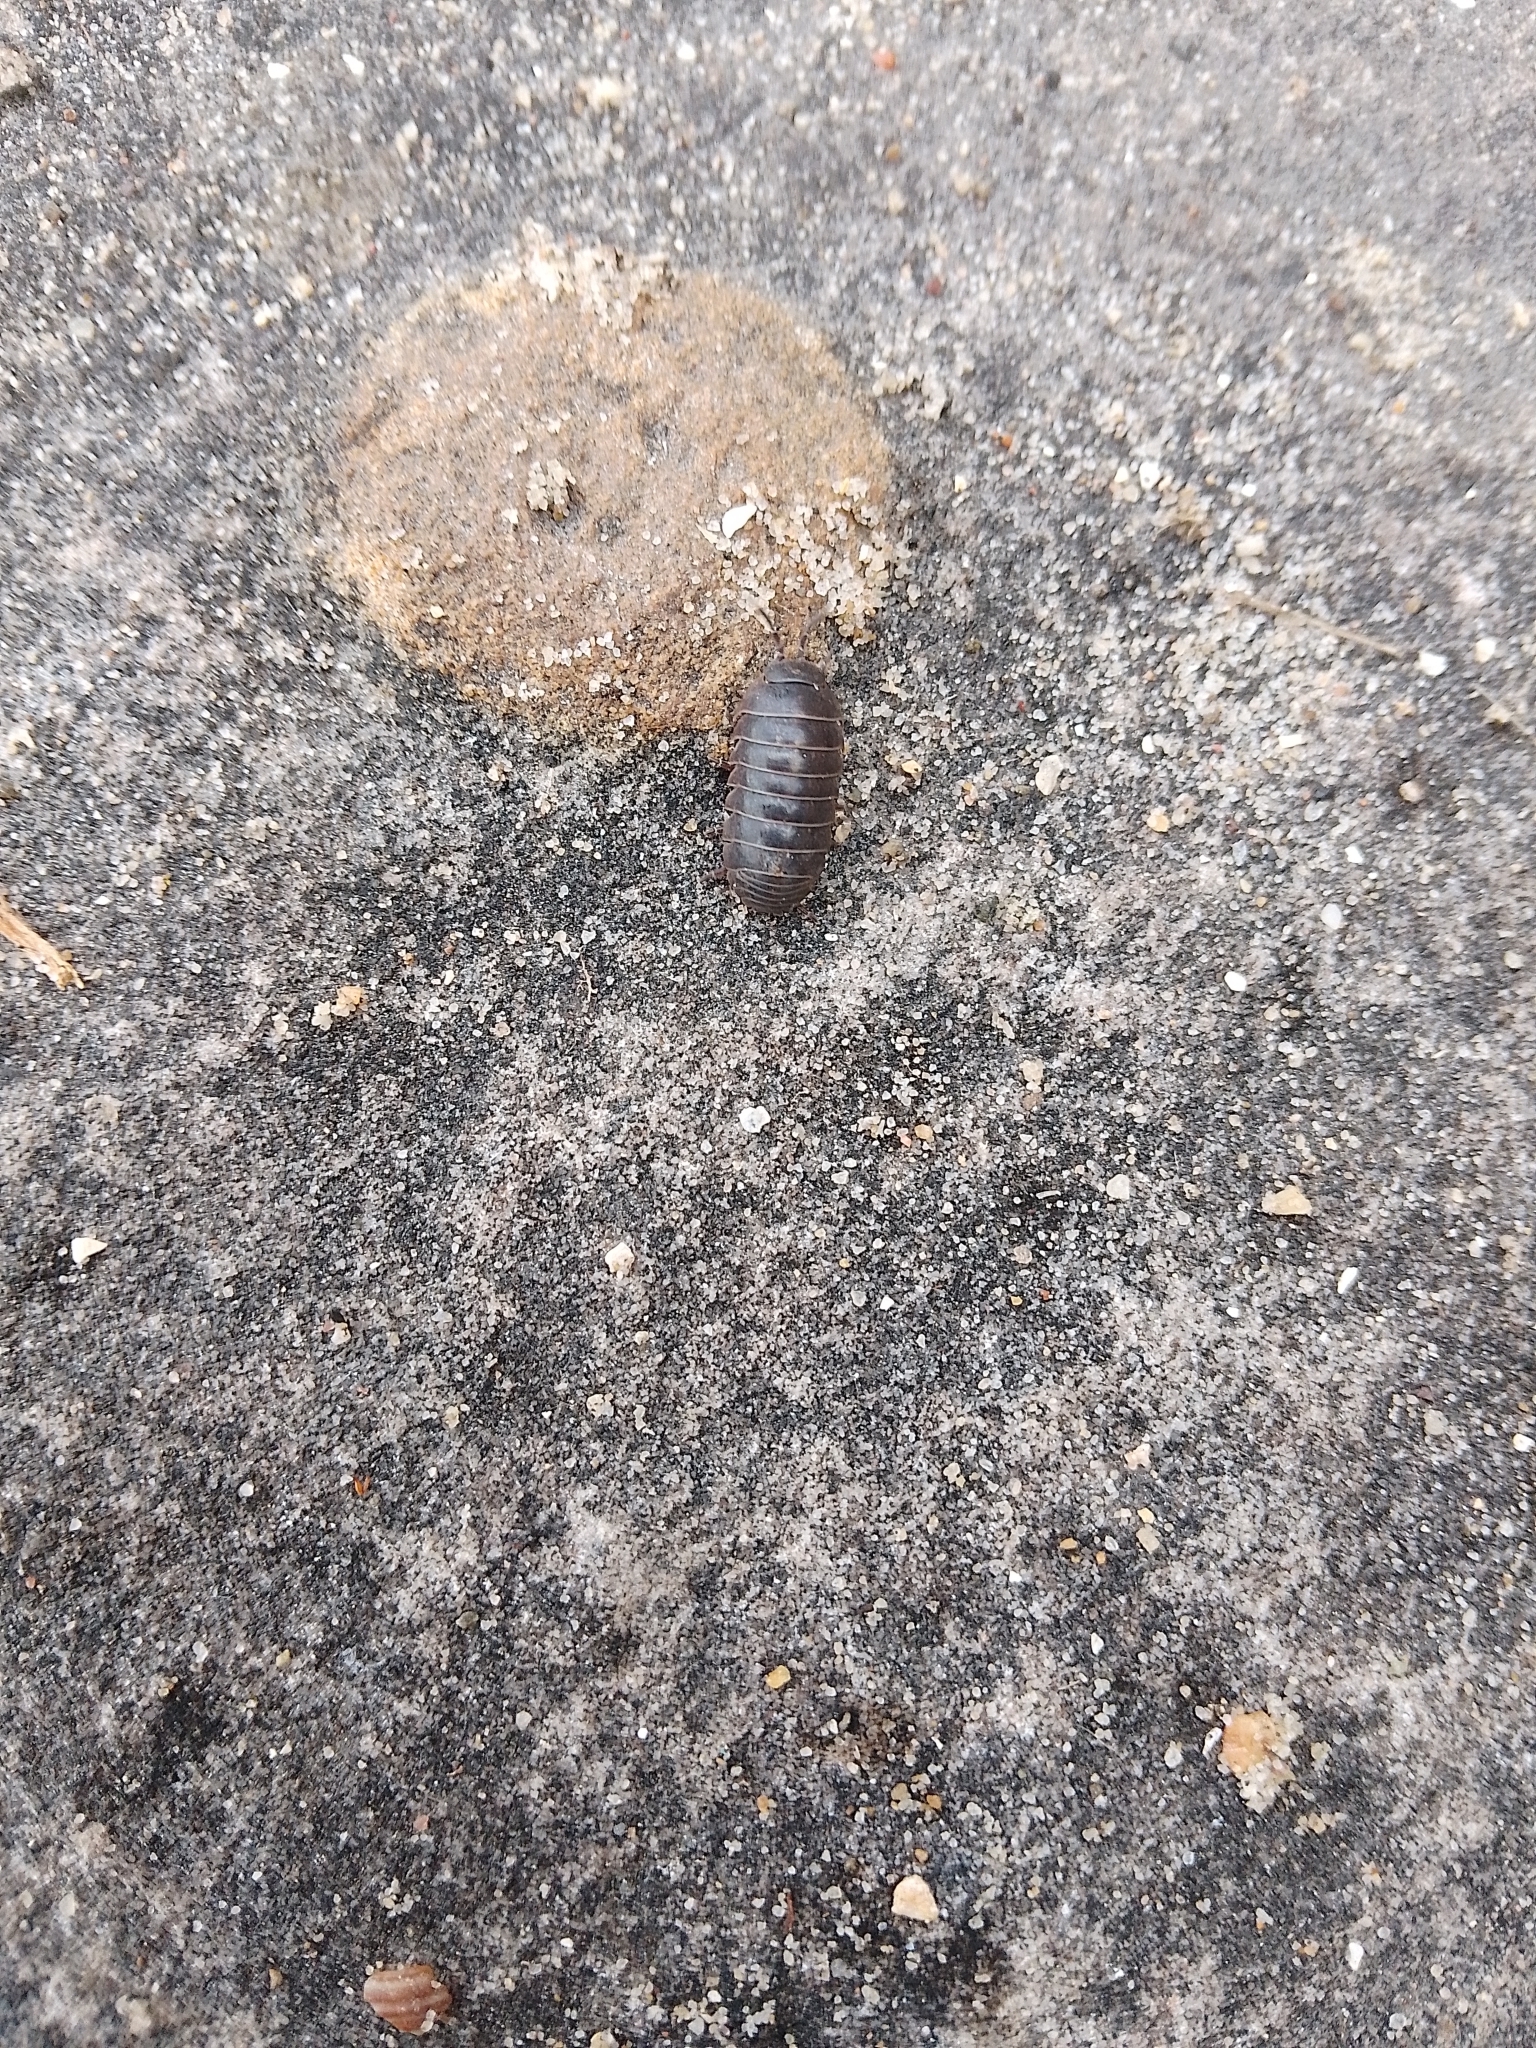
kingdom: Animalia
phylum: Arthropoda
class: Malacostraca
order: Isopoda
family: Armadillidiidae
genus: Armadillidium
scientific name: Armadillidium vulgare
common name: Common pill woodlouse
